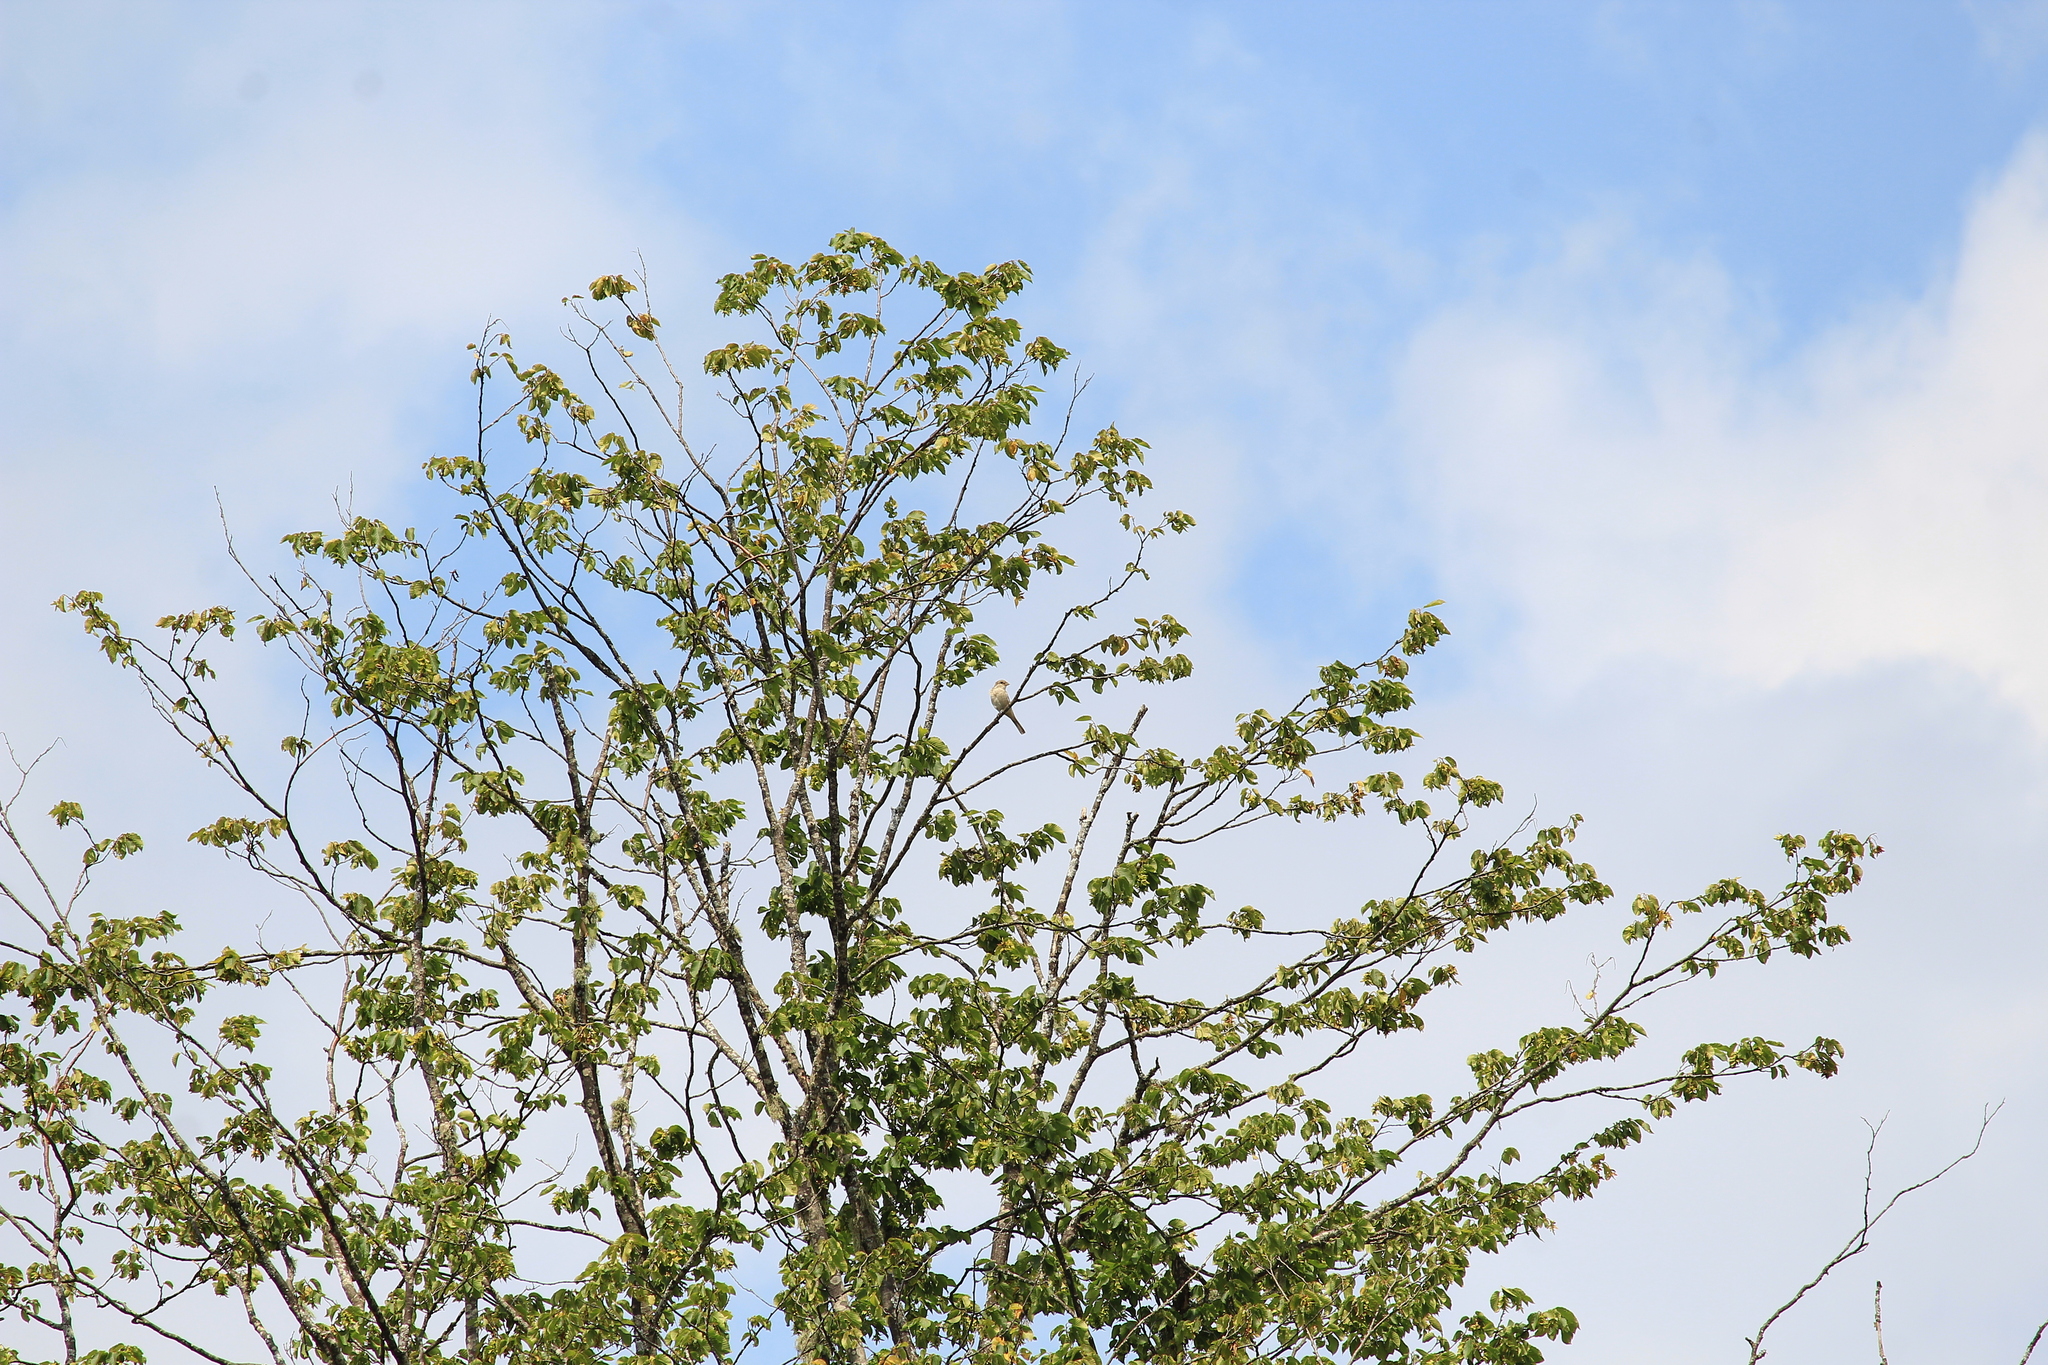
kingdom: Animalia
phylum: Chordata
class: Aves
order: Passeriformes
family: Laniidae
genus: Lanius
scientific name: Lanius collurio
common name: Red-backed shrike
